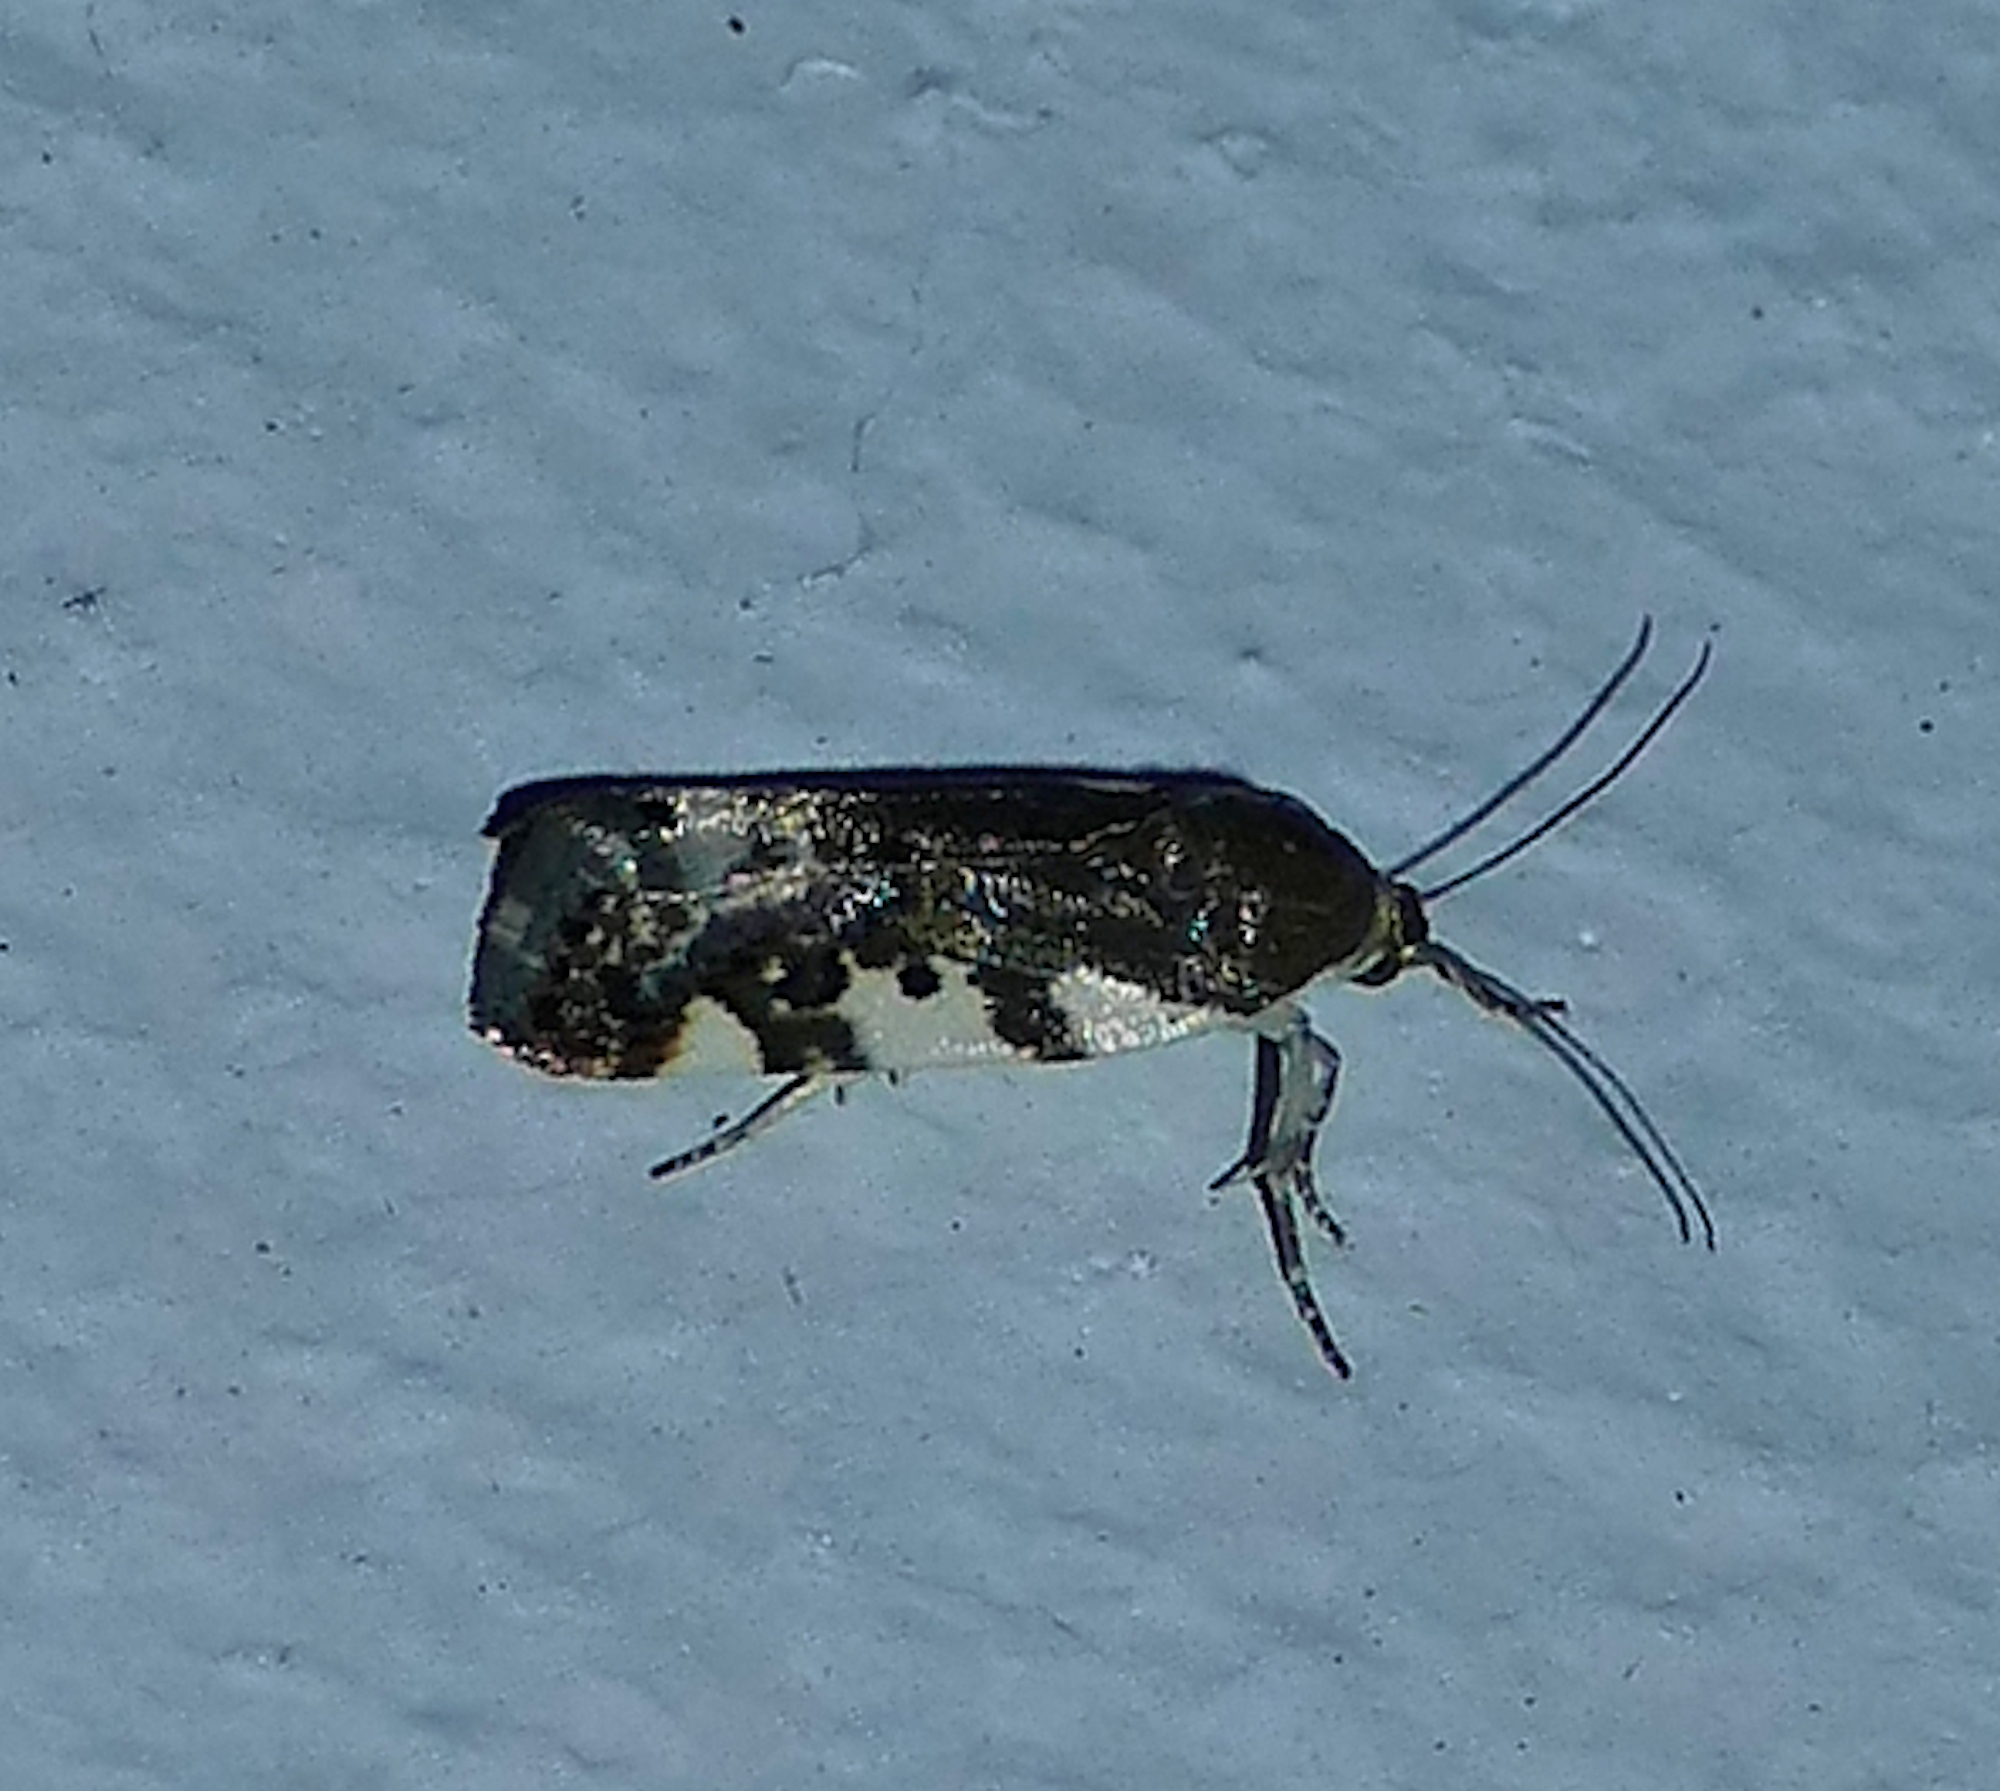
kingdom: Animalia
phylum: Arthropoda
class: Insecta
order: Lepidoptera
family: Noctuidae
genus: Acontia
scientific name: Acontia huachuca
